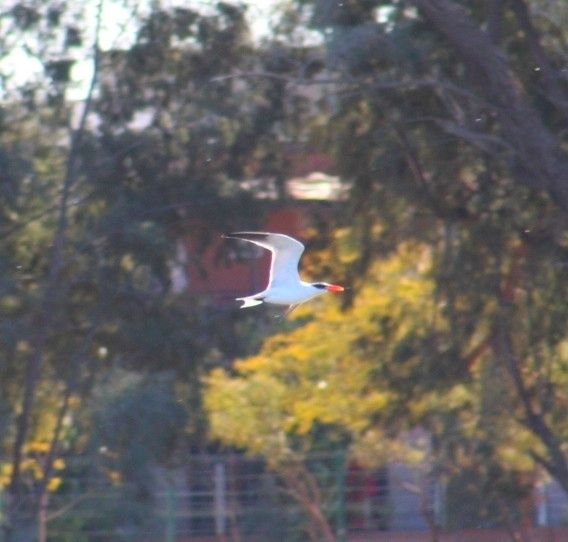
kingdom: Animalia
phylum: Chordata
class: Aves
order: Charadriiformes
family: Laridae
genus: Hydroprogne
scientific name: Hydroprogne caspia
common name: Caspian tern
